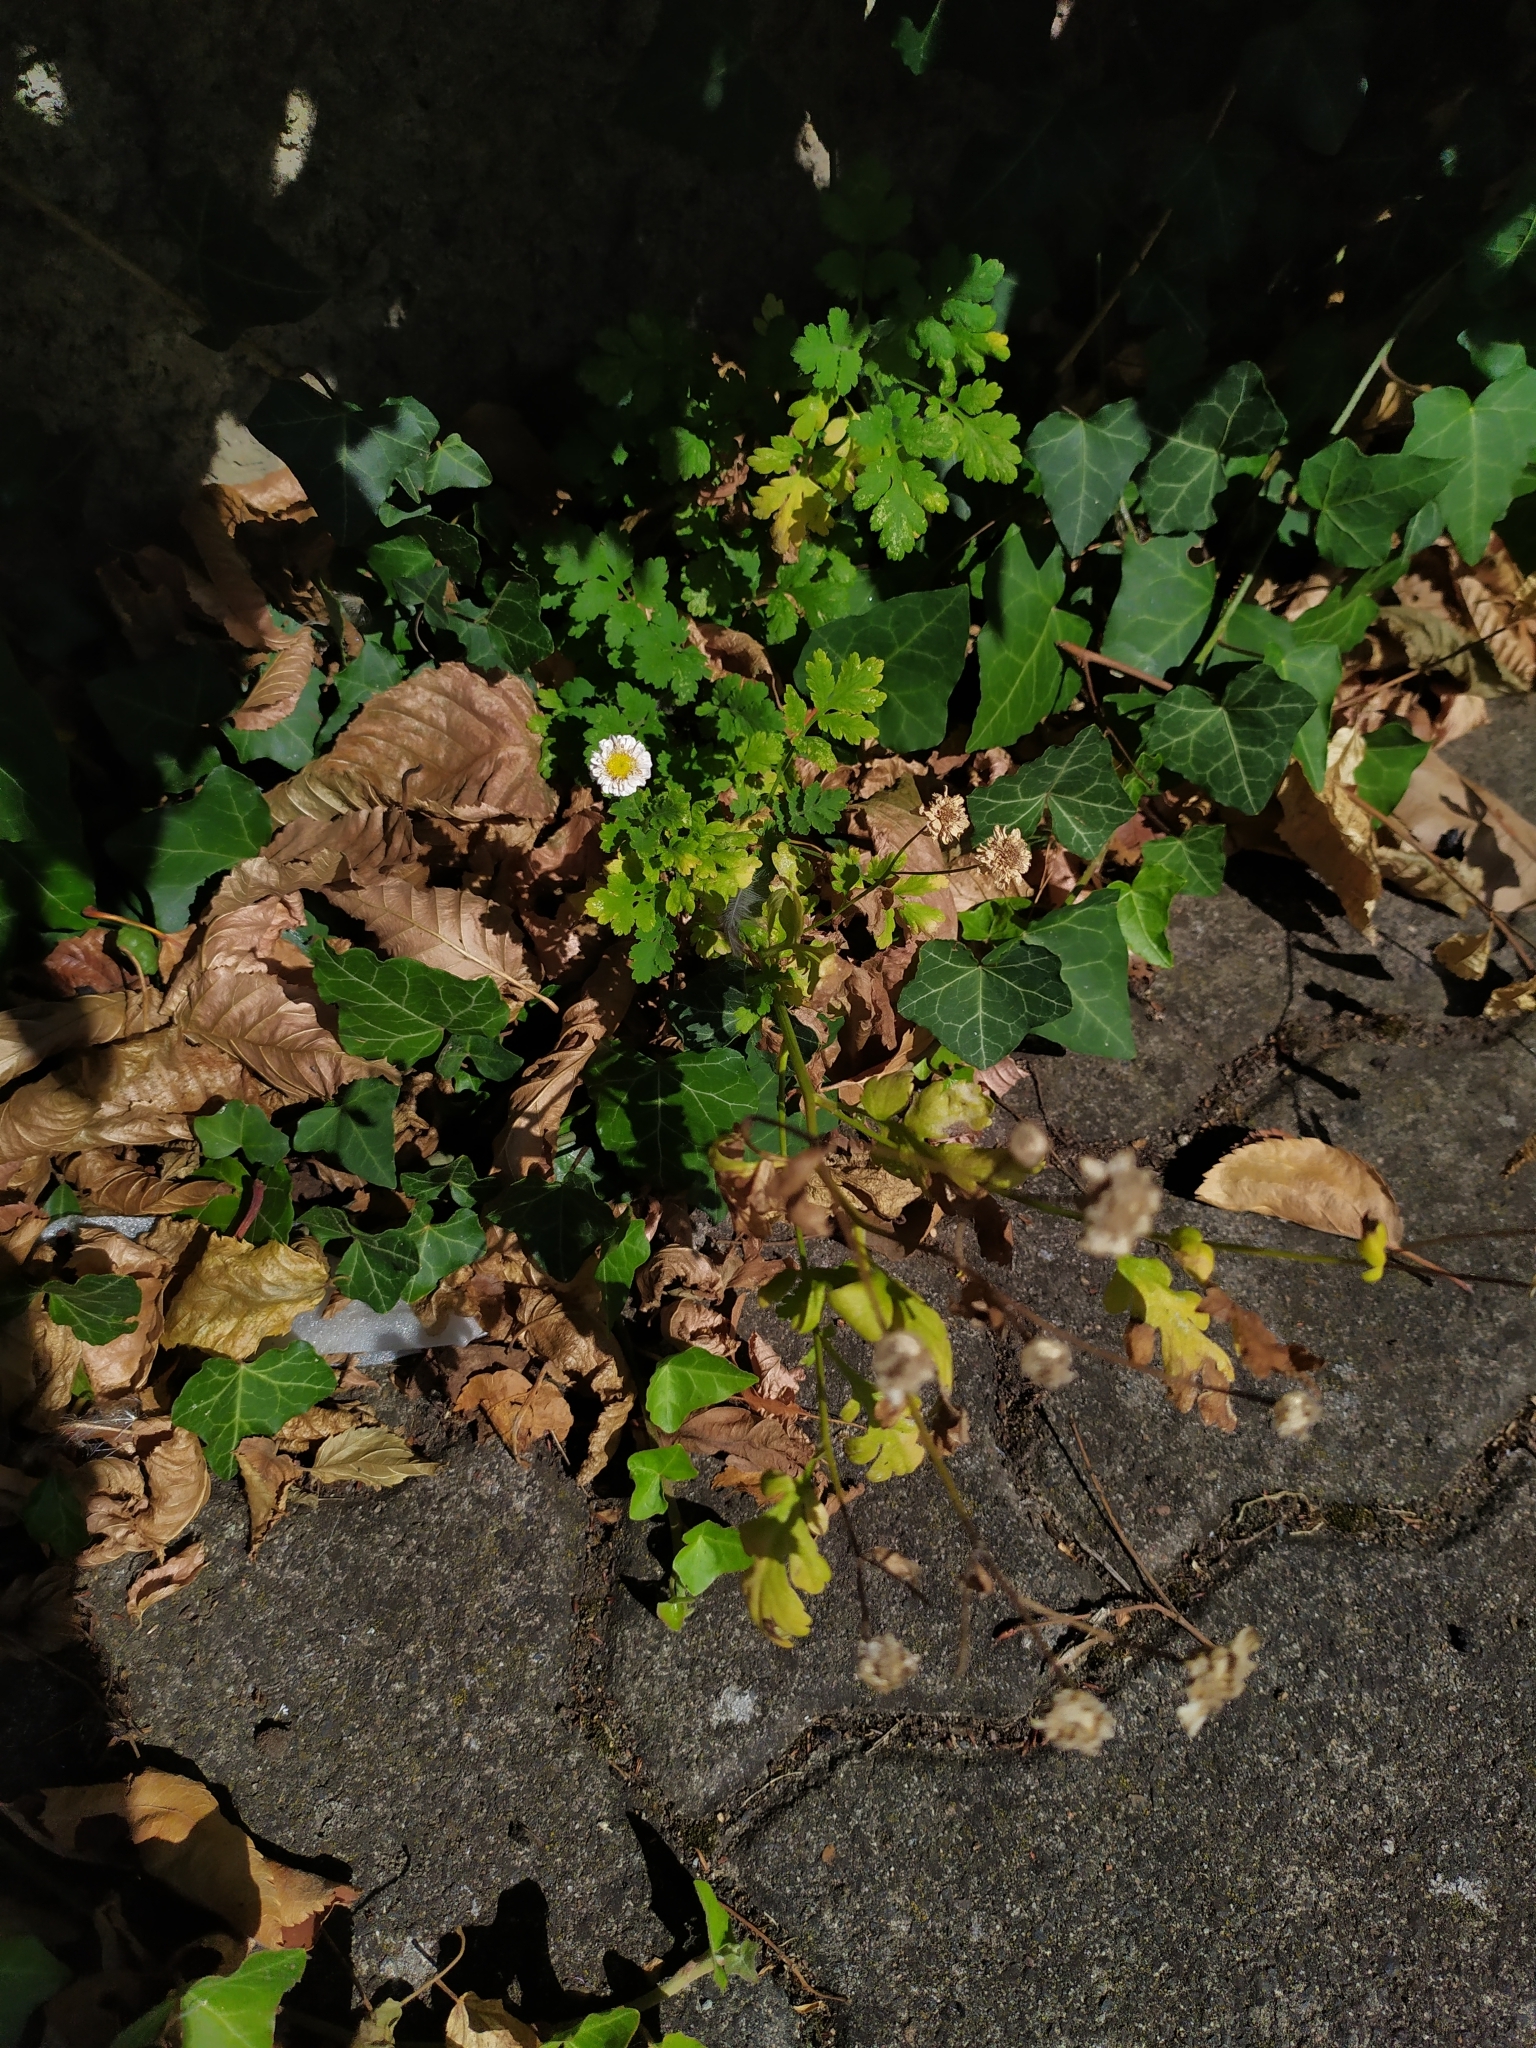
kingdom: Plantae
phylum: Tracheophyta
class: Magnoliopsida
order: Asterales
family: Asteraceae
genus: Tanacetum
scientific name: Tanacetum parthenium
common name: Feverfew
